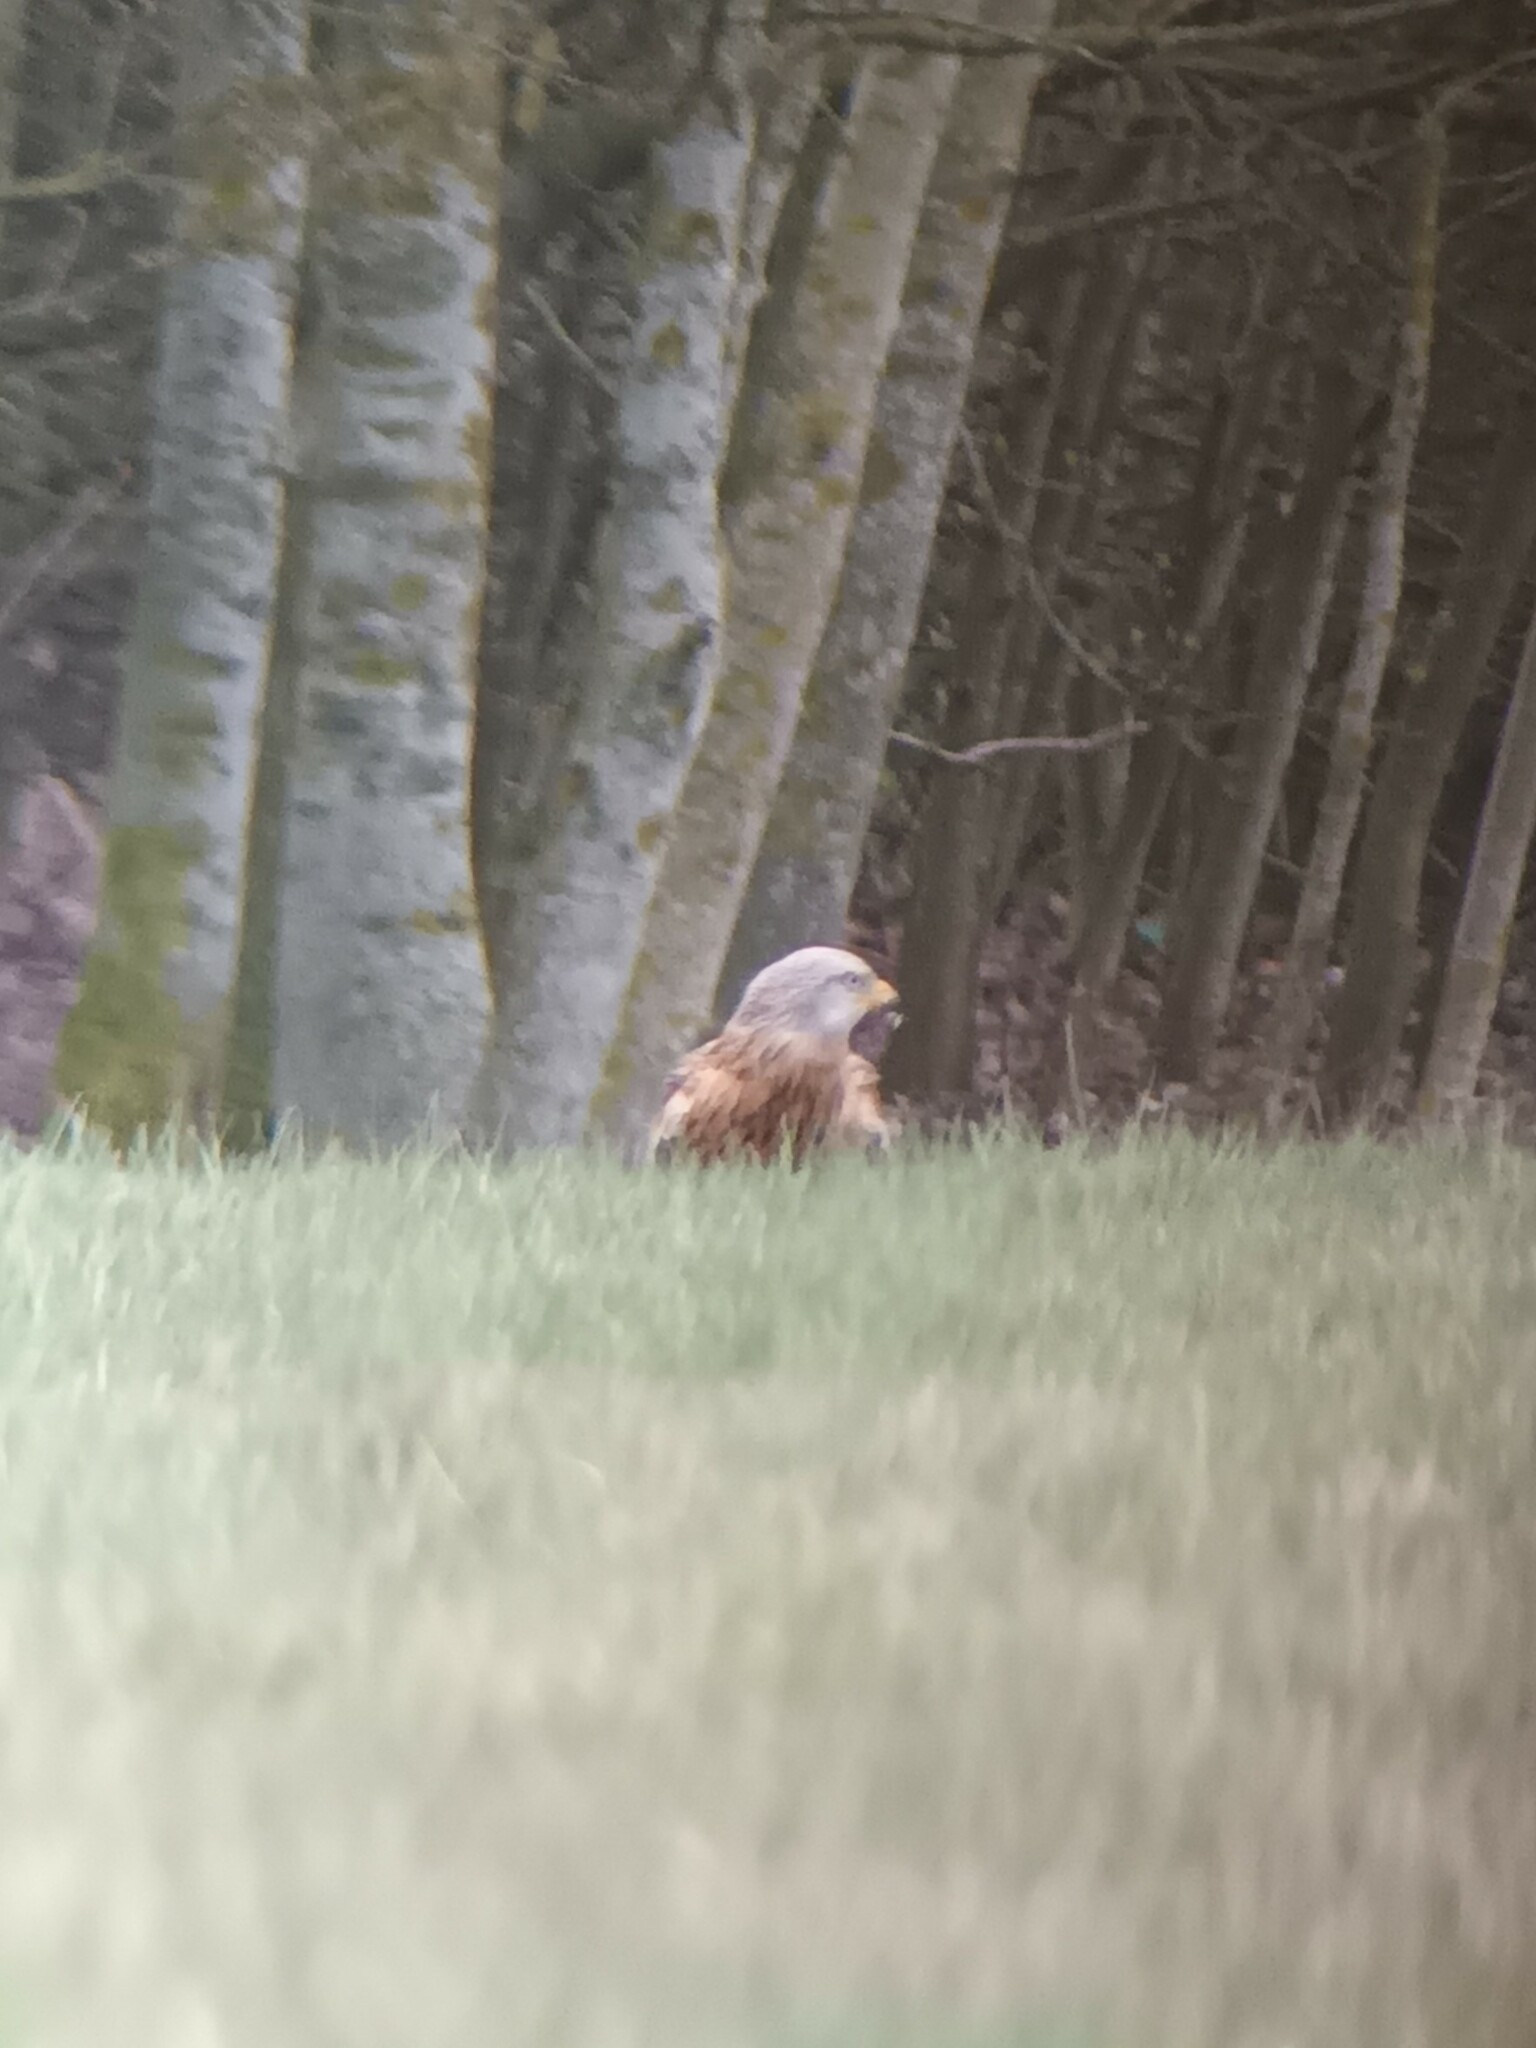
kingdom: Animalia
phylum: Chordata
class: Aves
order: Accipitriformes
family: Accipitridae
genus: Milvus
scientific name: Milvus milvus
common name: Red kite
